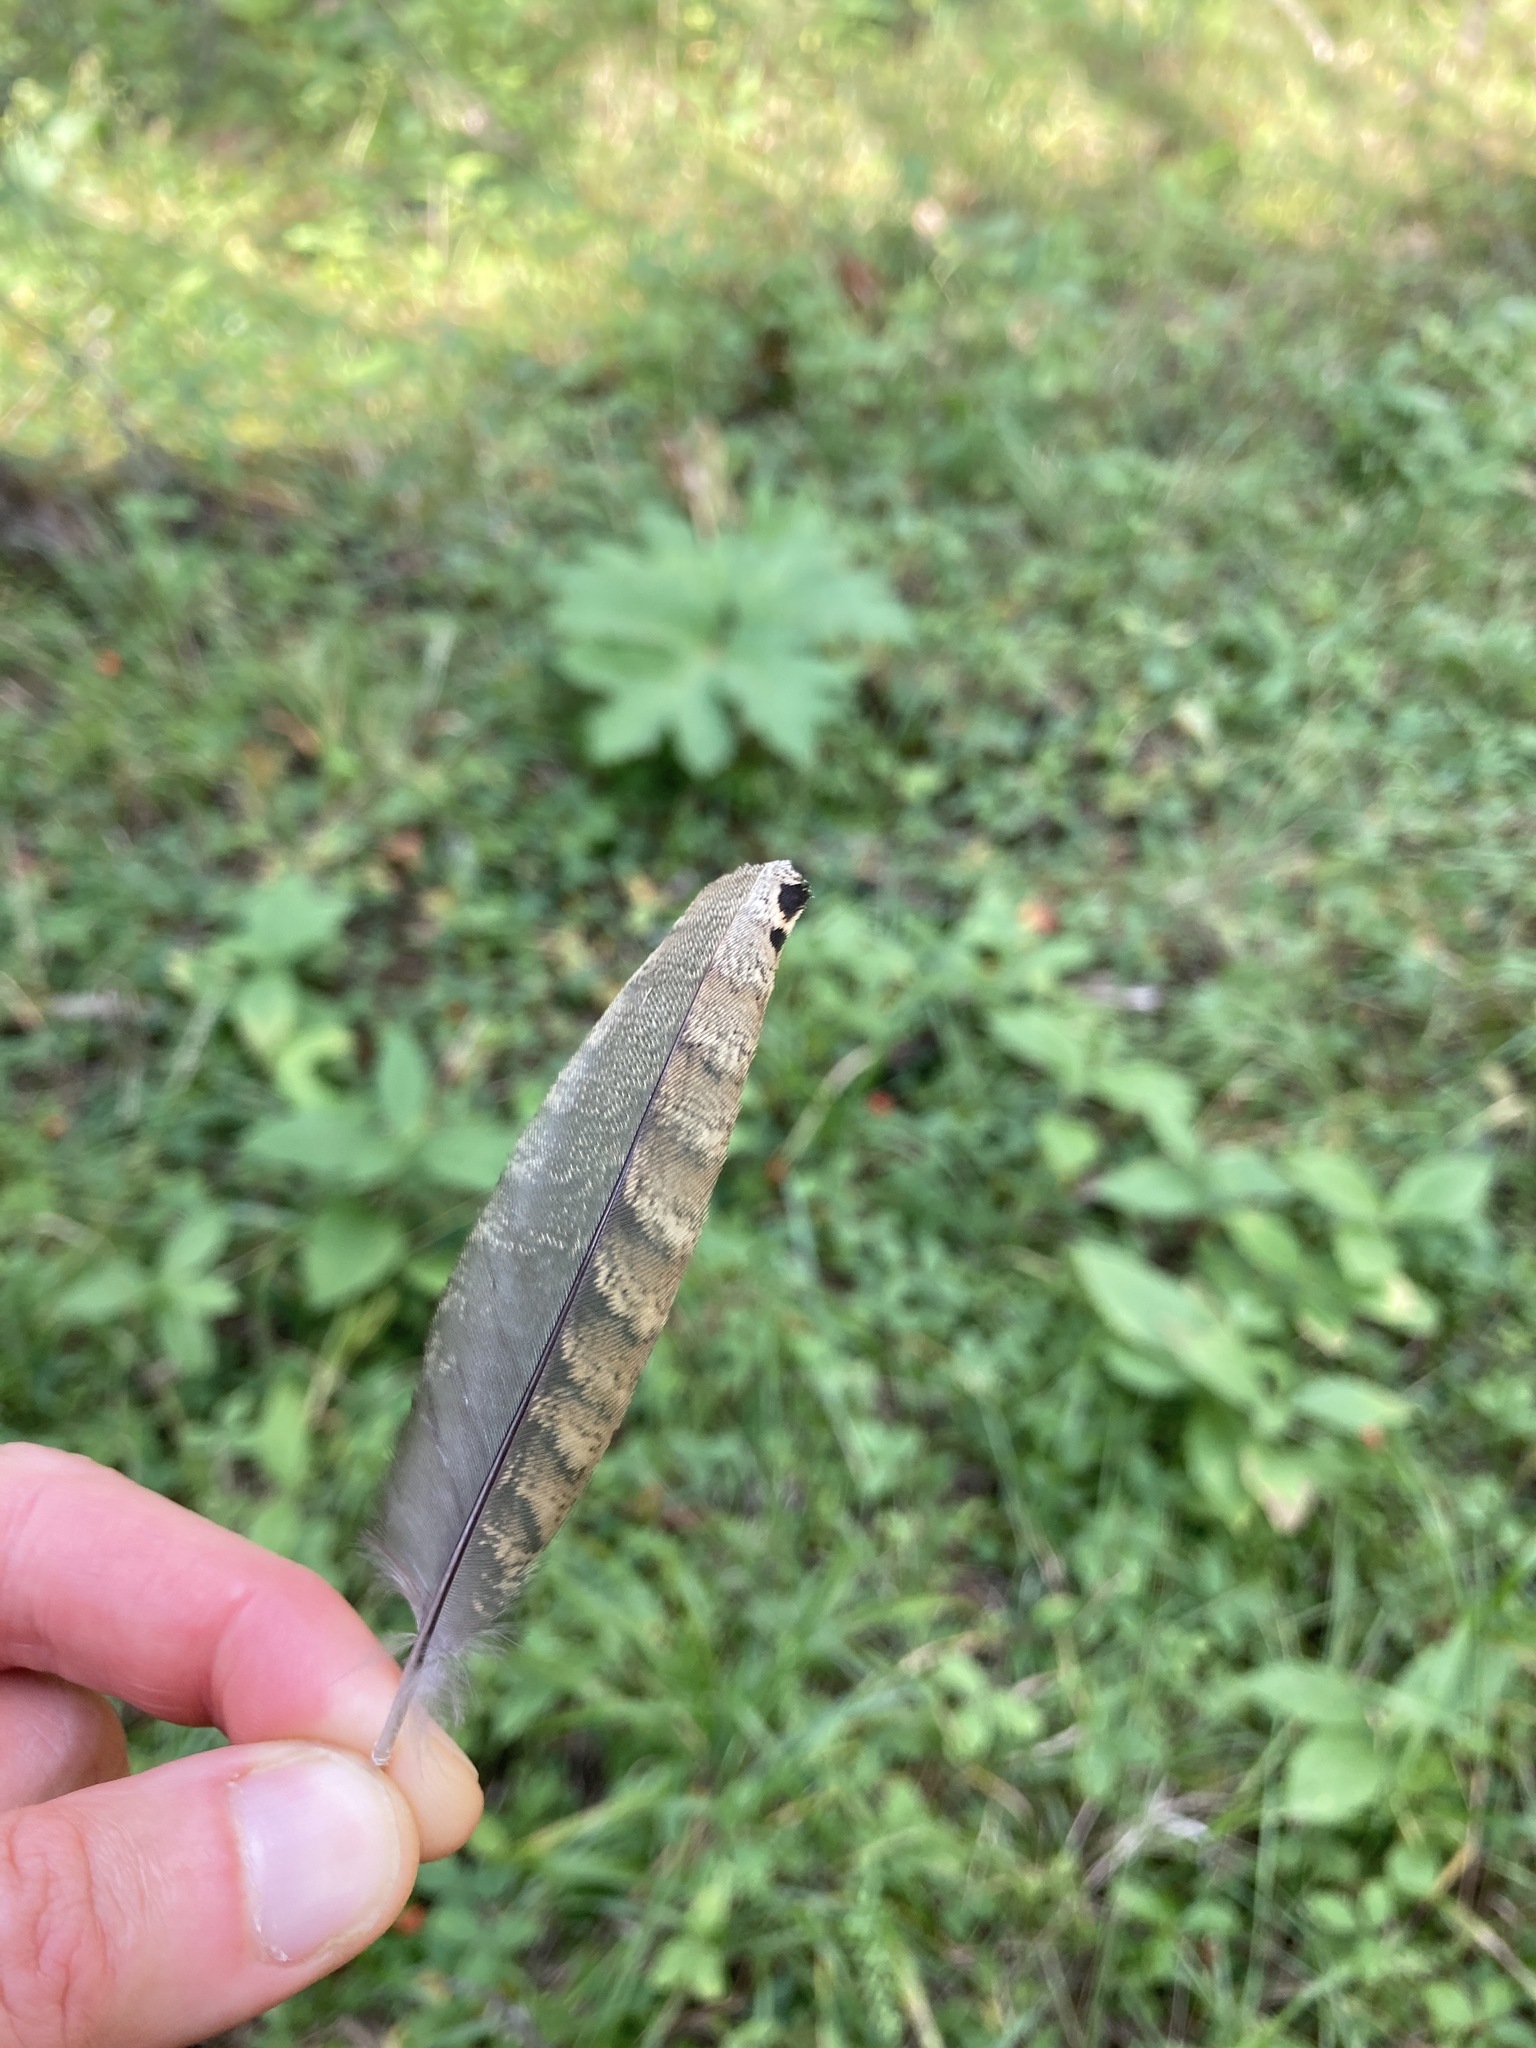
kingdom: Animalia
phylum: Chordata
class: Aves
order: Galliformes
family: Phasianidae
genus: Bonasa
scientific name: Bonasa umbellus
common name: Ruffed grouse
